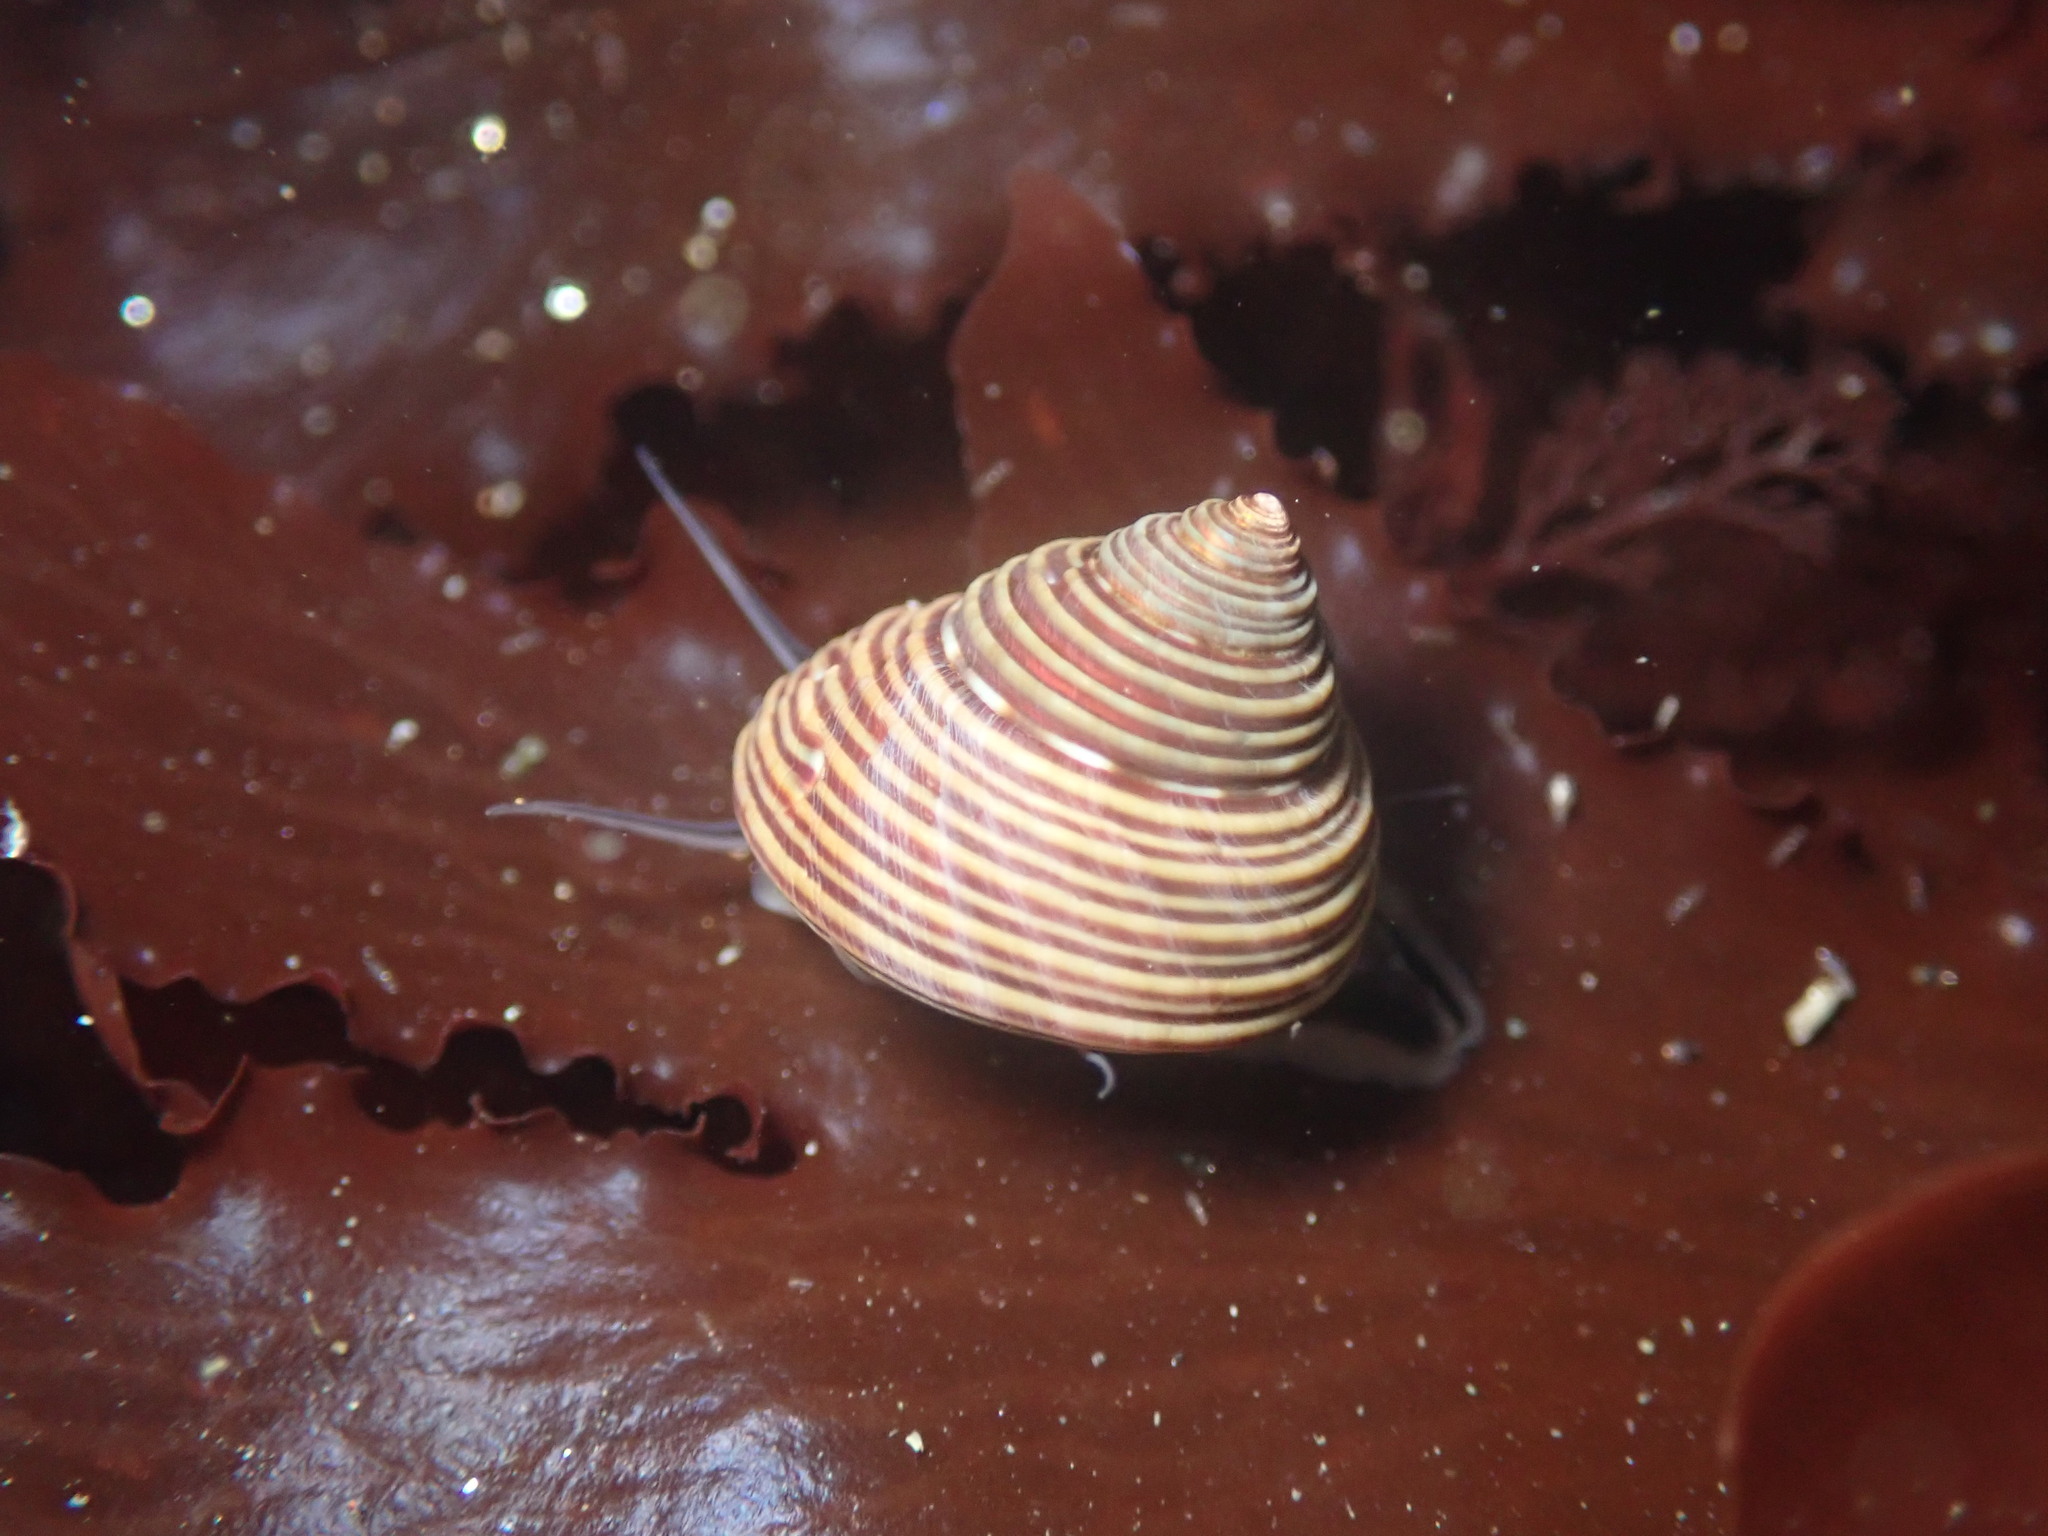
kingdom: Animalia
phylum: Mollusca
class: Gastropoda
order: Trochida
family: Calliostomatidae
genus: Calliostoma
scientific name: Calliostoma ligatum
